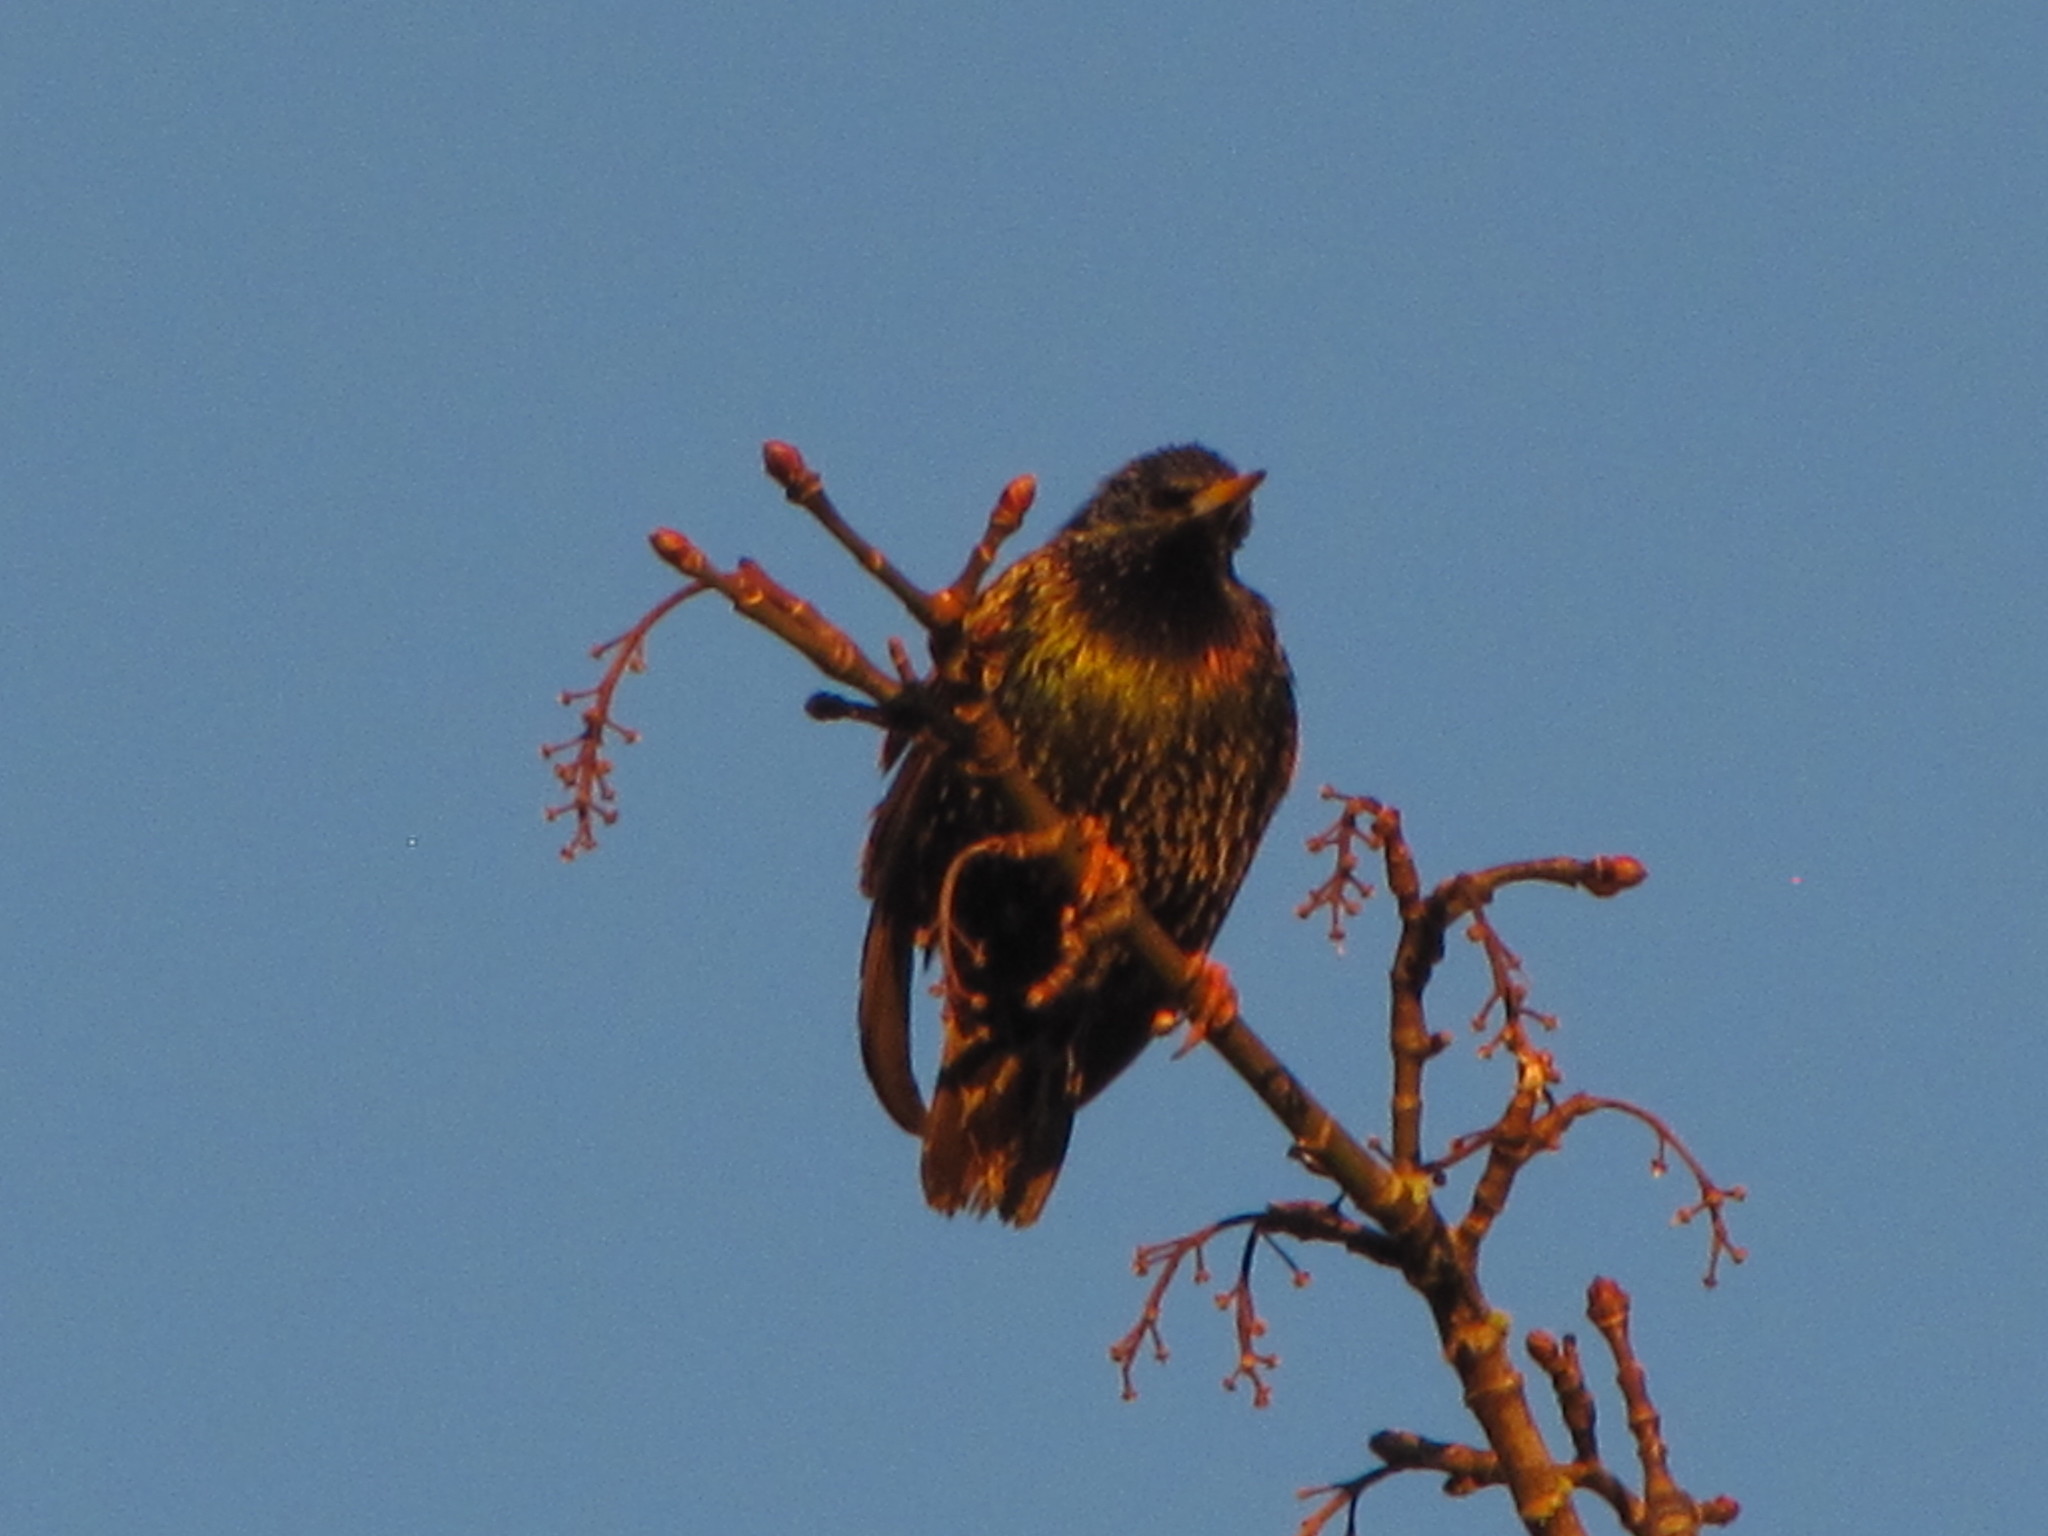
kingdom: Animalia
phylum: Chordata
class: Aves
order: Passeriformes
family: Sturnidae
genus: Sturnus
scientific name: Sturnus vulgaris
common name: Common starling
